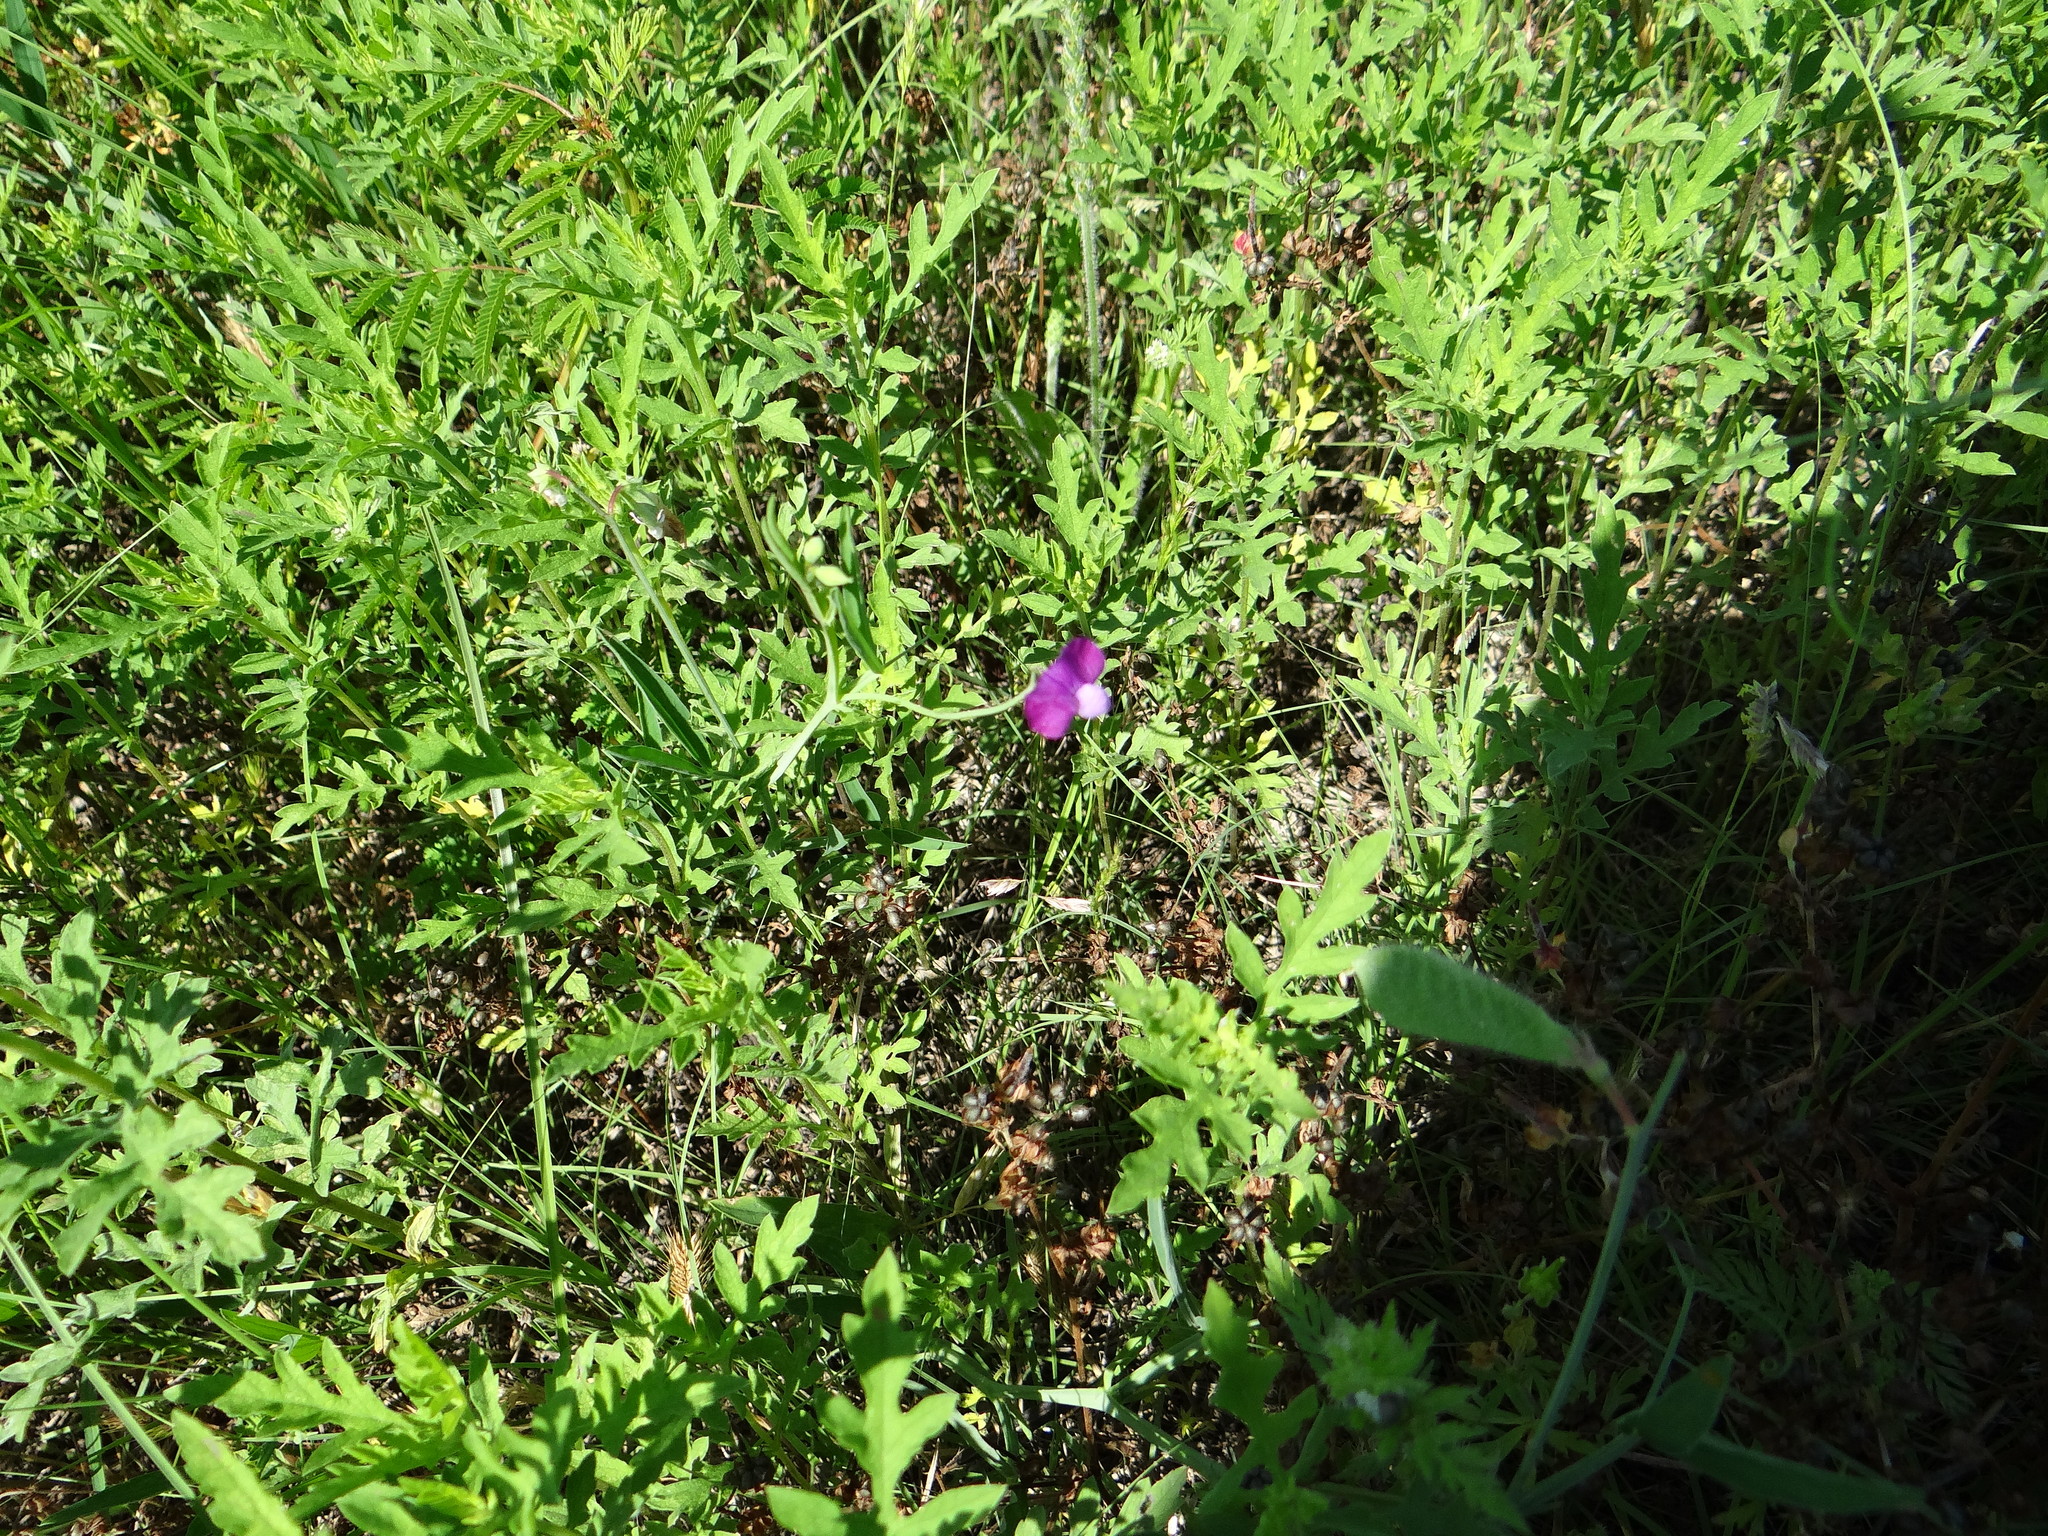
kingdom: Plantae
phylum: Tracheophyta
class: Magnoliopsida
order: Fabales
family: Fabaceae
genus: Lathyrus
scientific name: Lathyrus hirsutus
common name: Hairy vetchling
